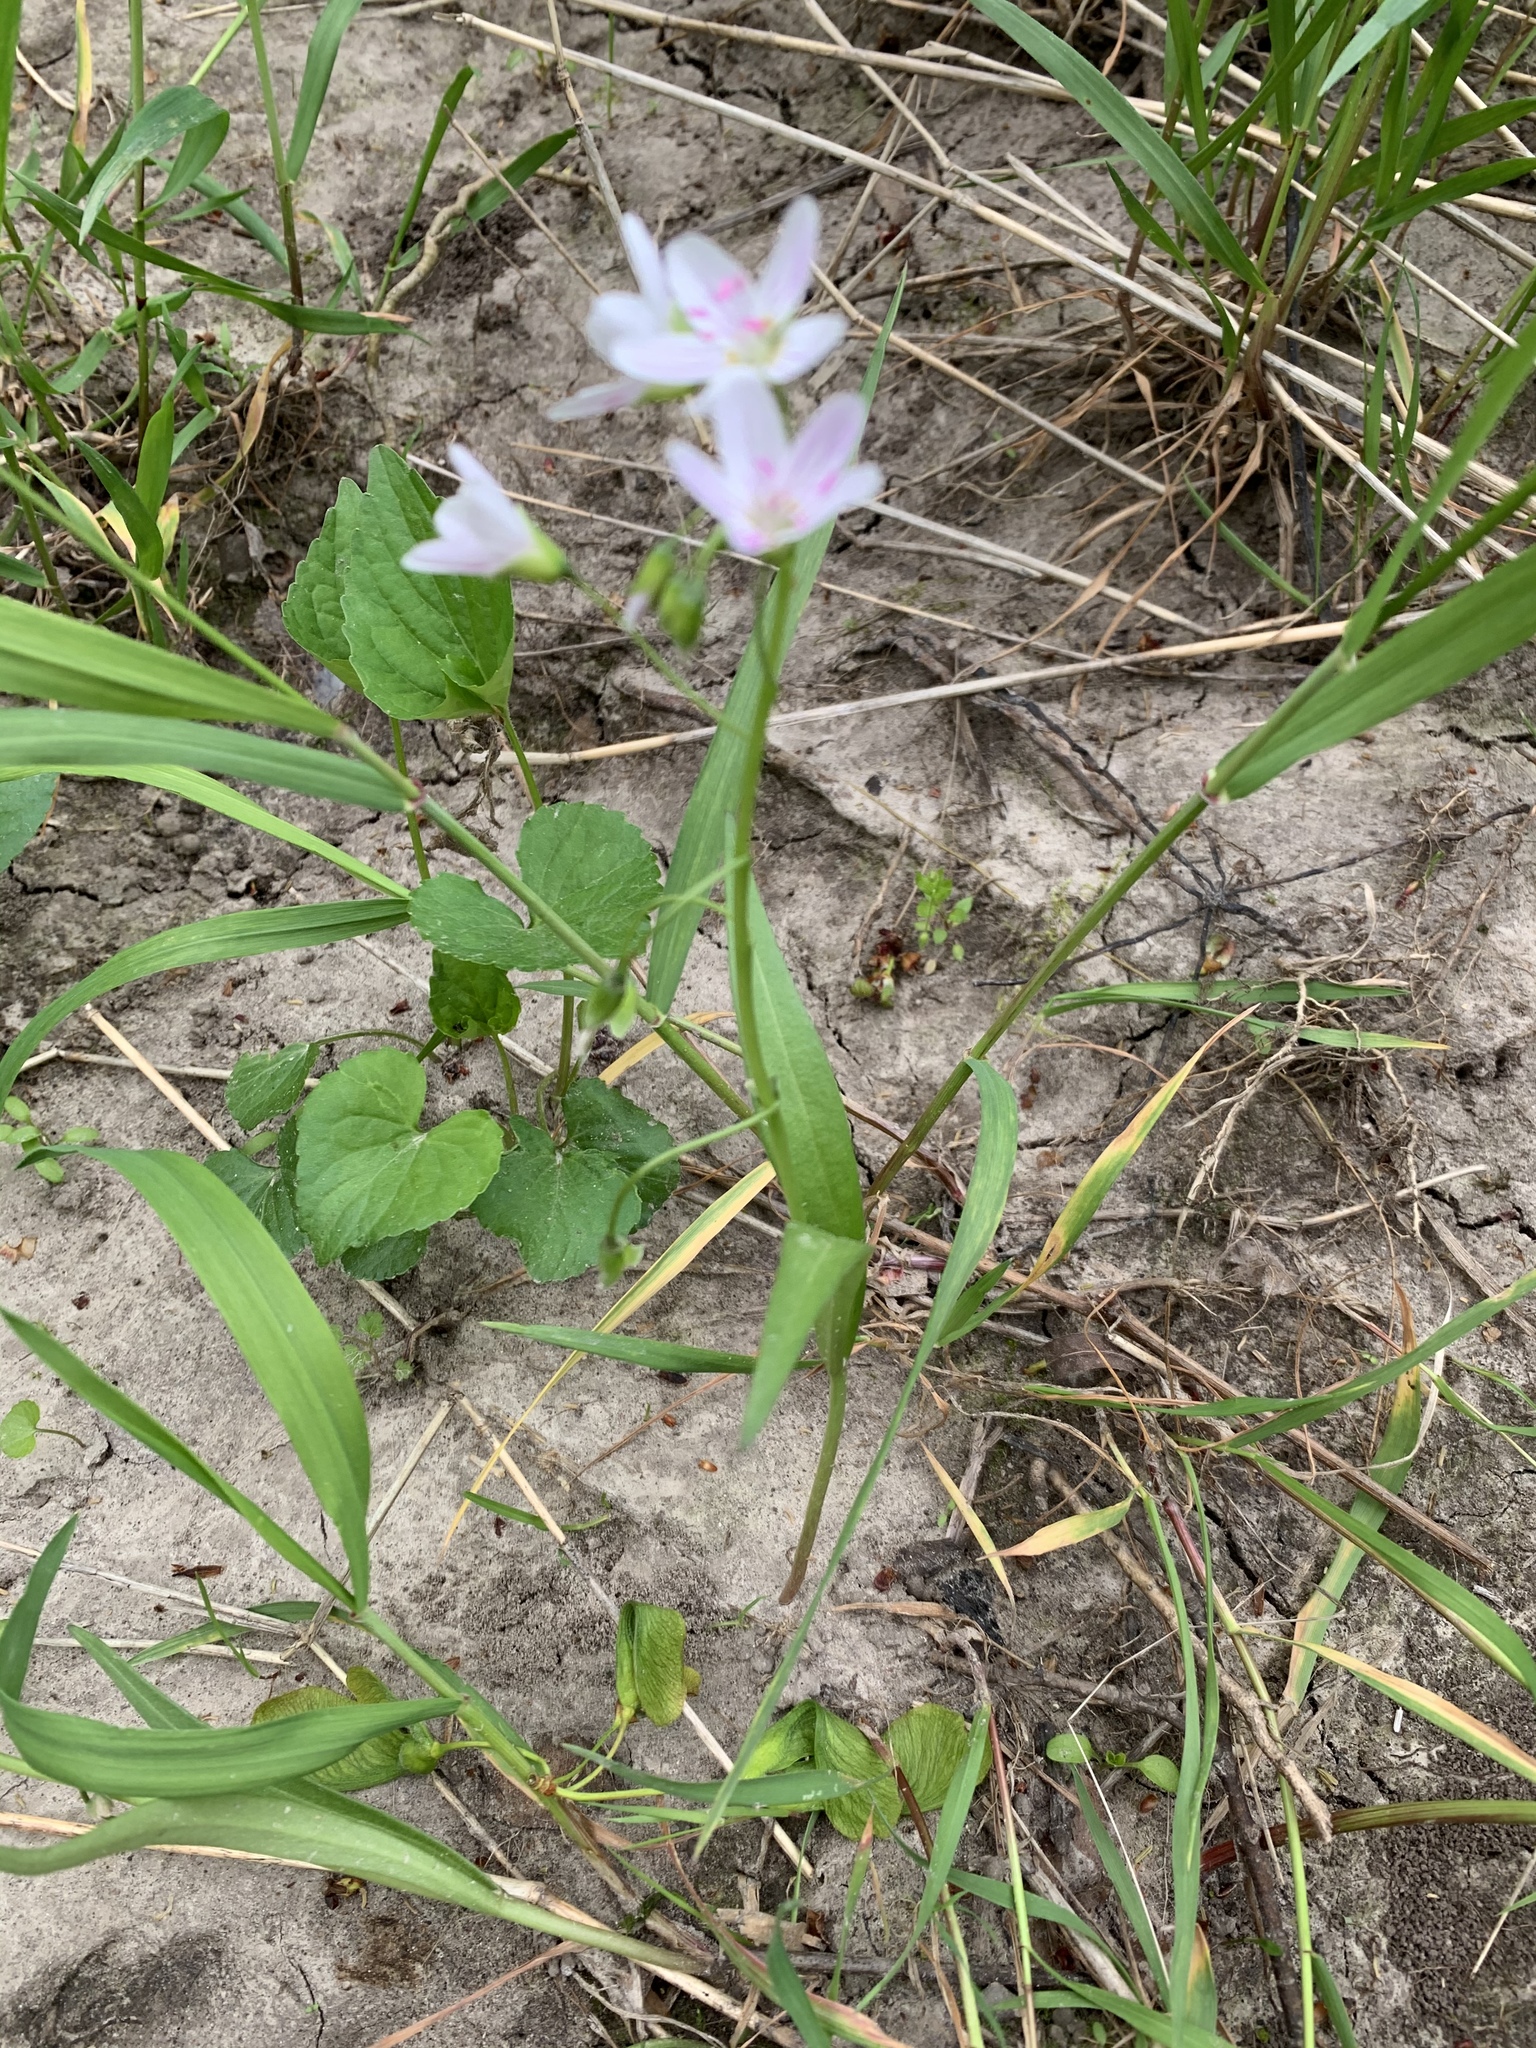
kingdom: Plantae
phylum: Tracheophyta
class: Magnoliopsida
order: Caryophyllales
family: Montiaceae
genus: Claytonia
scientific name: Claytonia virginica
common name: Virginia springbeauty
